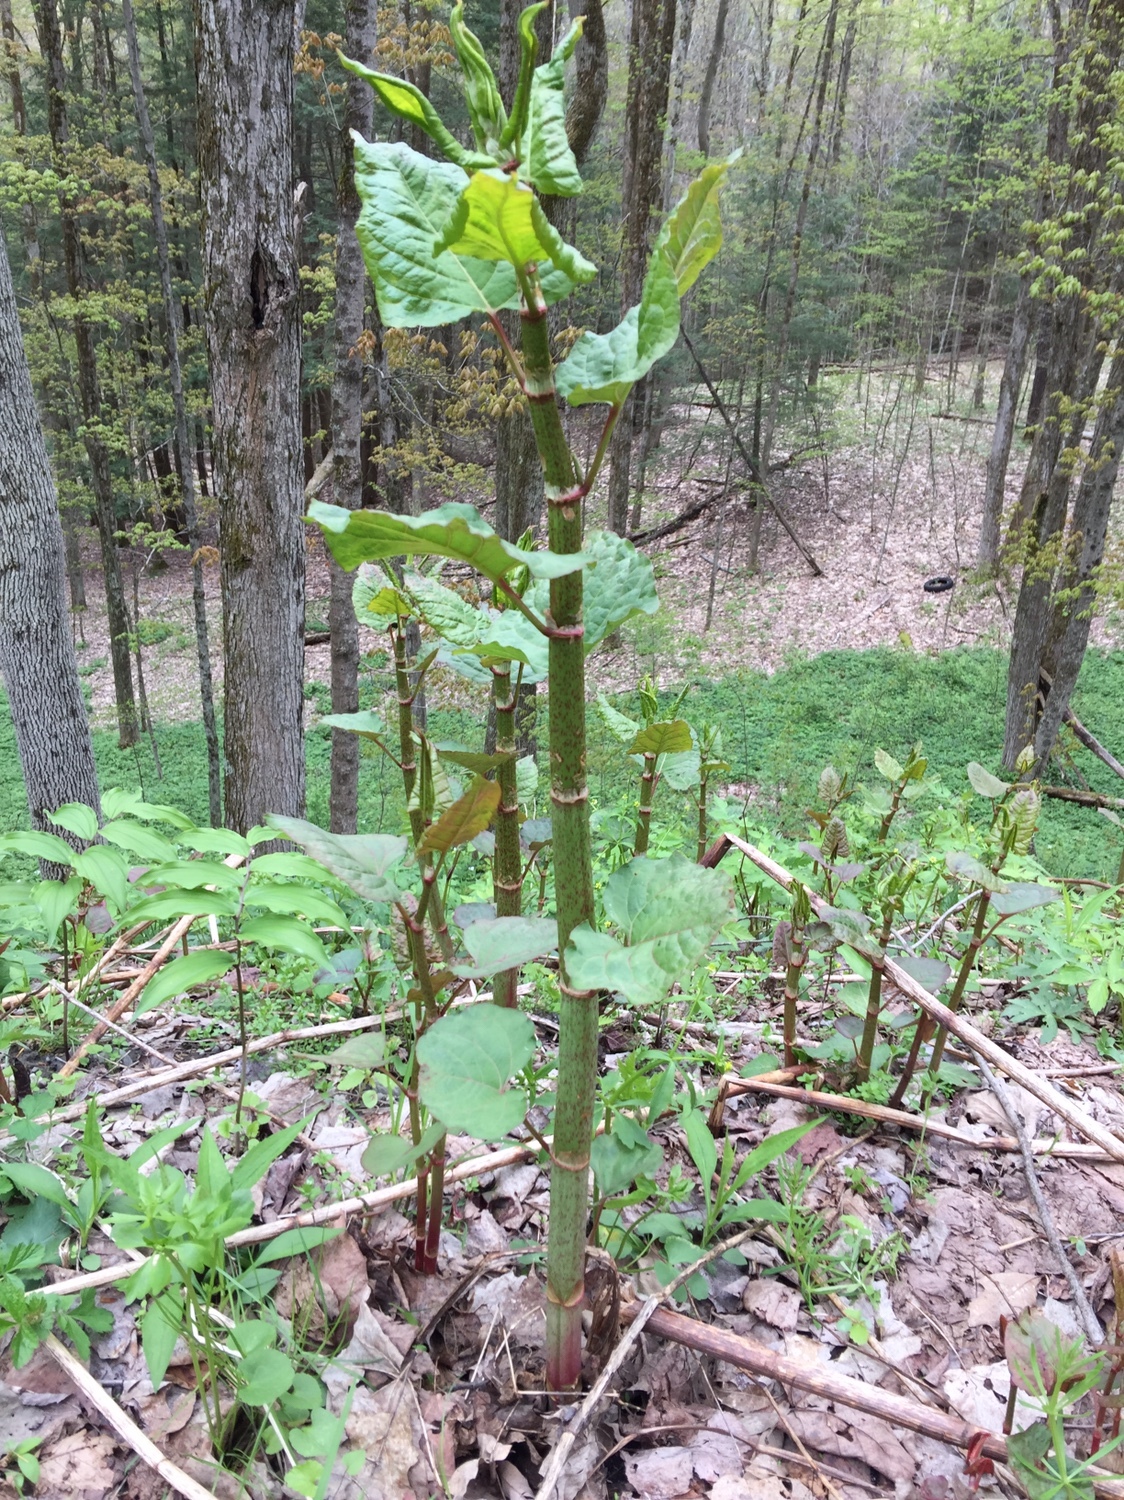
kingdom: Plantae
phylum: Tracheophyta
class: Magnoliopsida
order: Caryophyllales
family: Polygonaceae
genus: Reynoutria
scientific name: Reynoutria japonica
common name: Japanese knotweed
